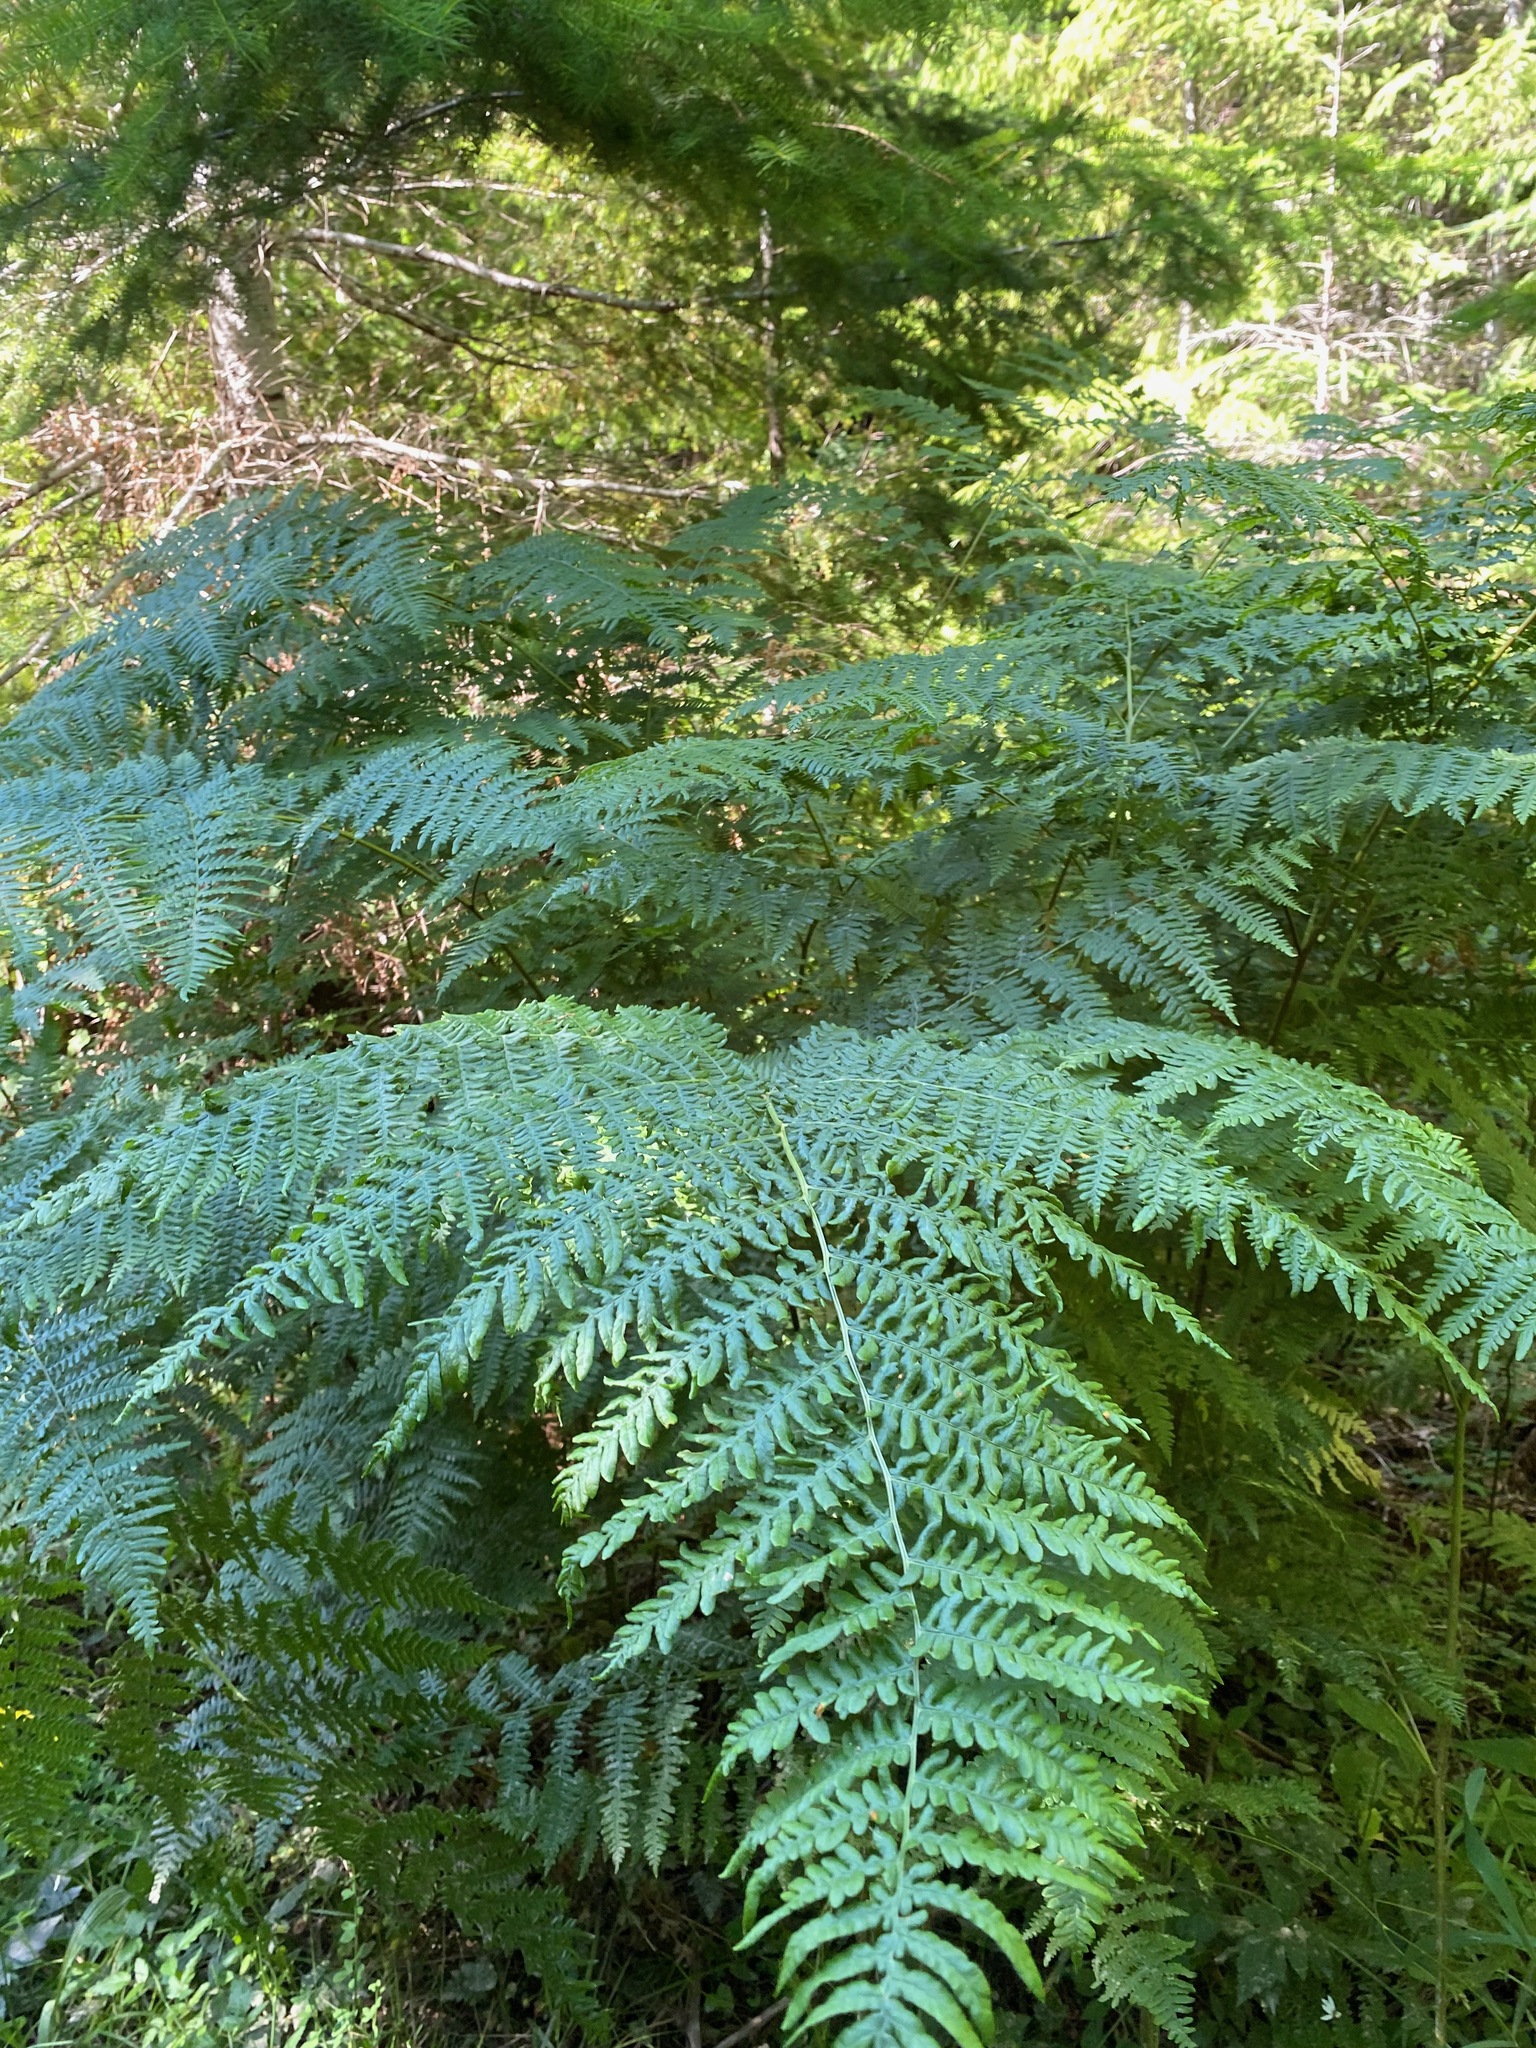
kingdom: Plantae
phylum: Tracheophyta
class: Polypodiopsida
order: Polypodiales
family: Dennstaedtiaceae
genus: Pteridium
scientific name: Pteridium aquilinum
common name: Bracken
